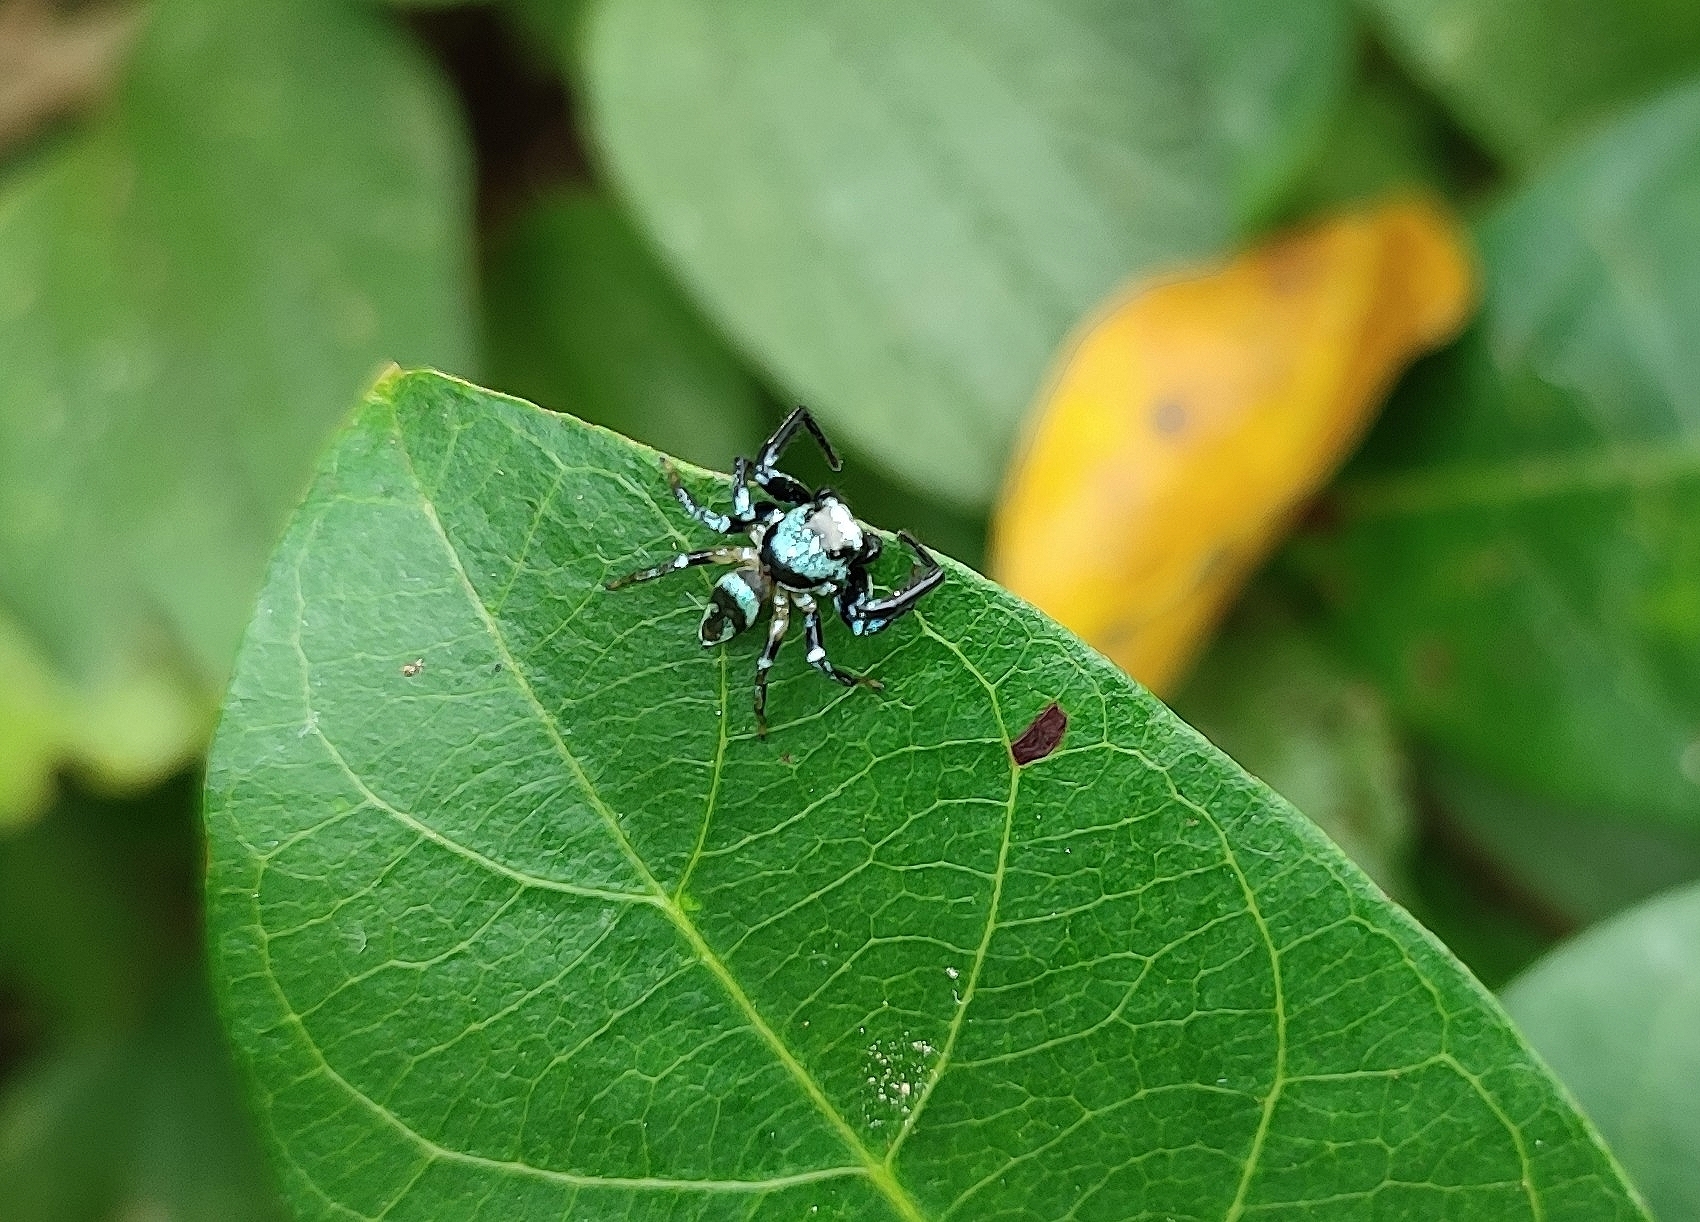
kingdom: Animalia
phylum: Arthropoda
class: Arachnida
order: Araneae
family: Salticidae
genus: Thiania
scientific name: Thiania bhamoensis
